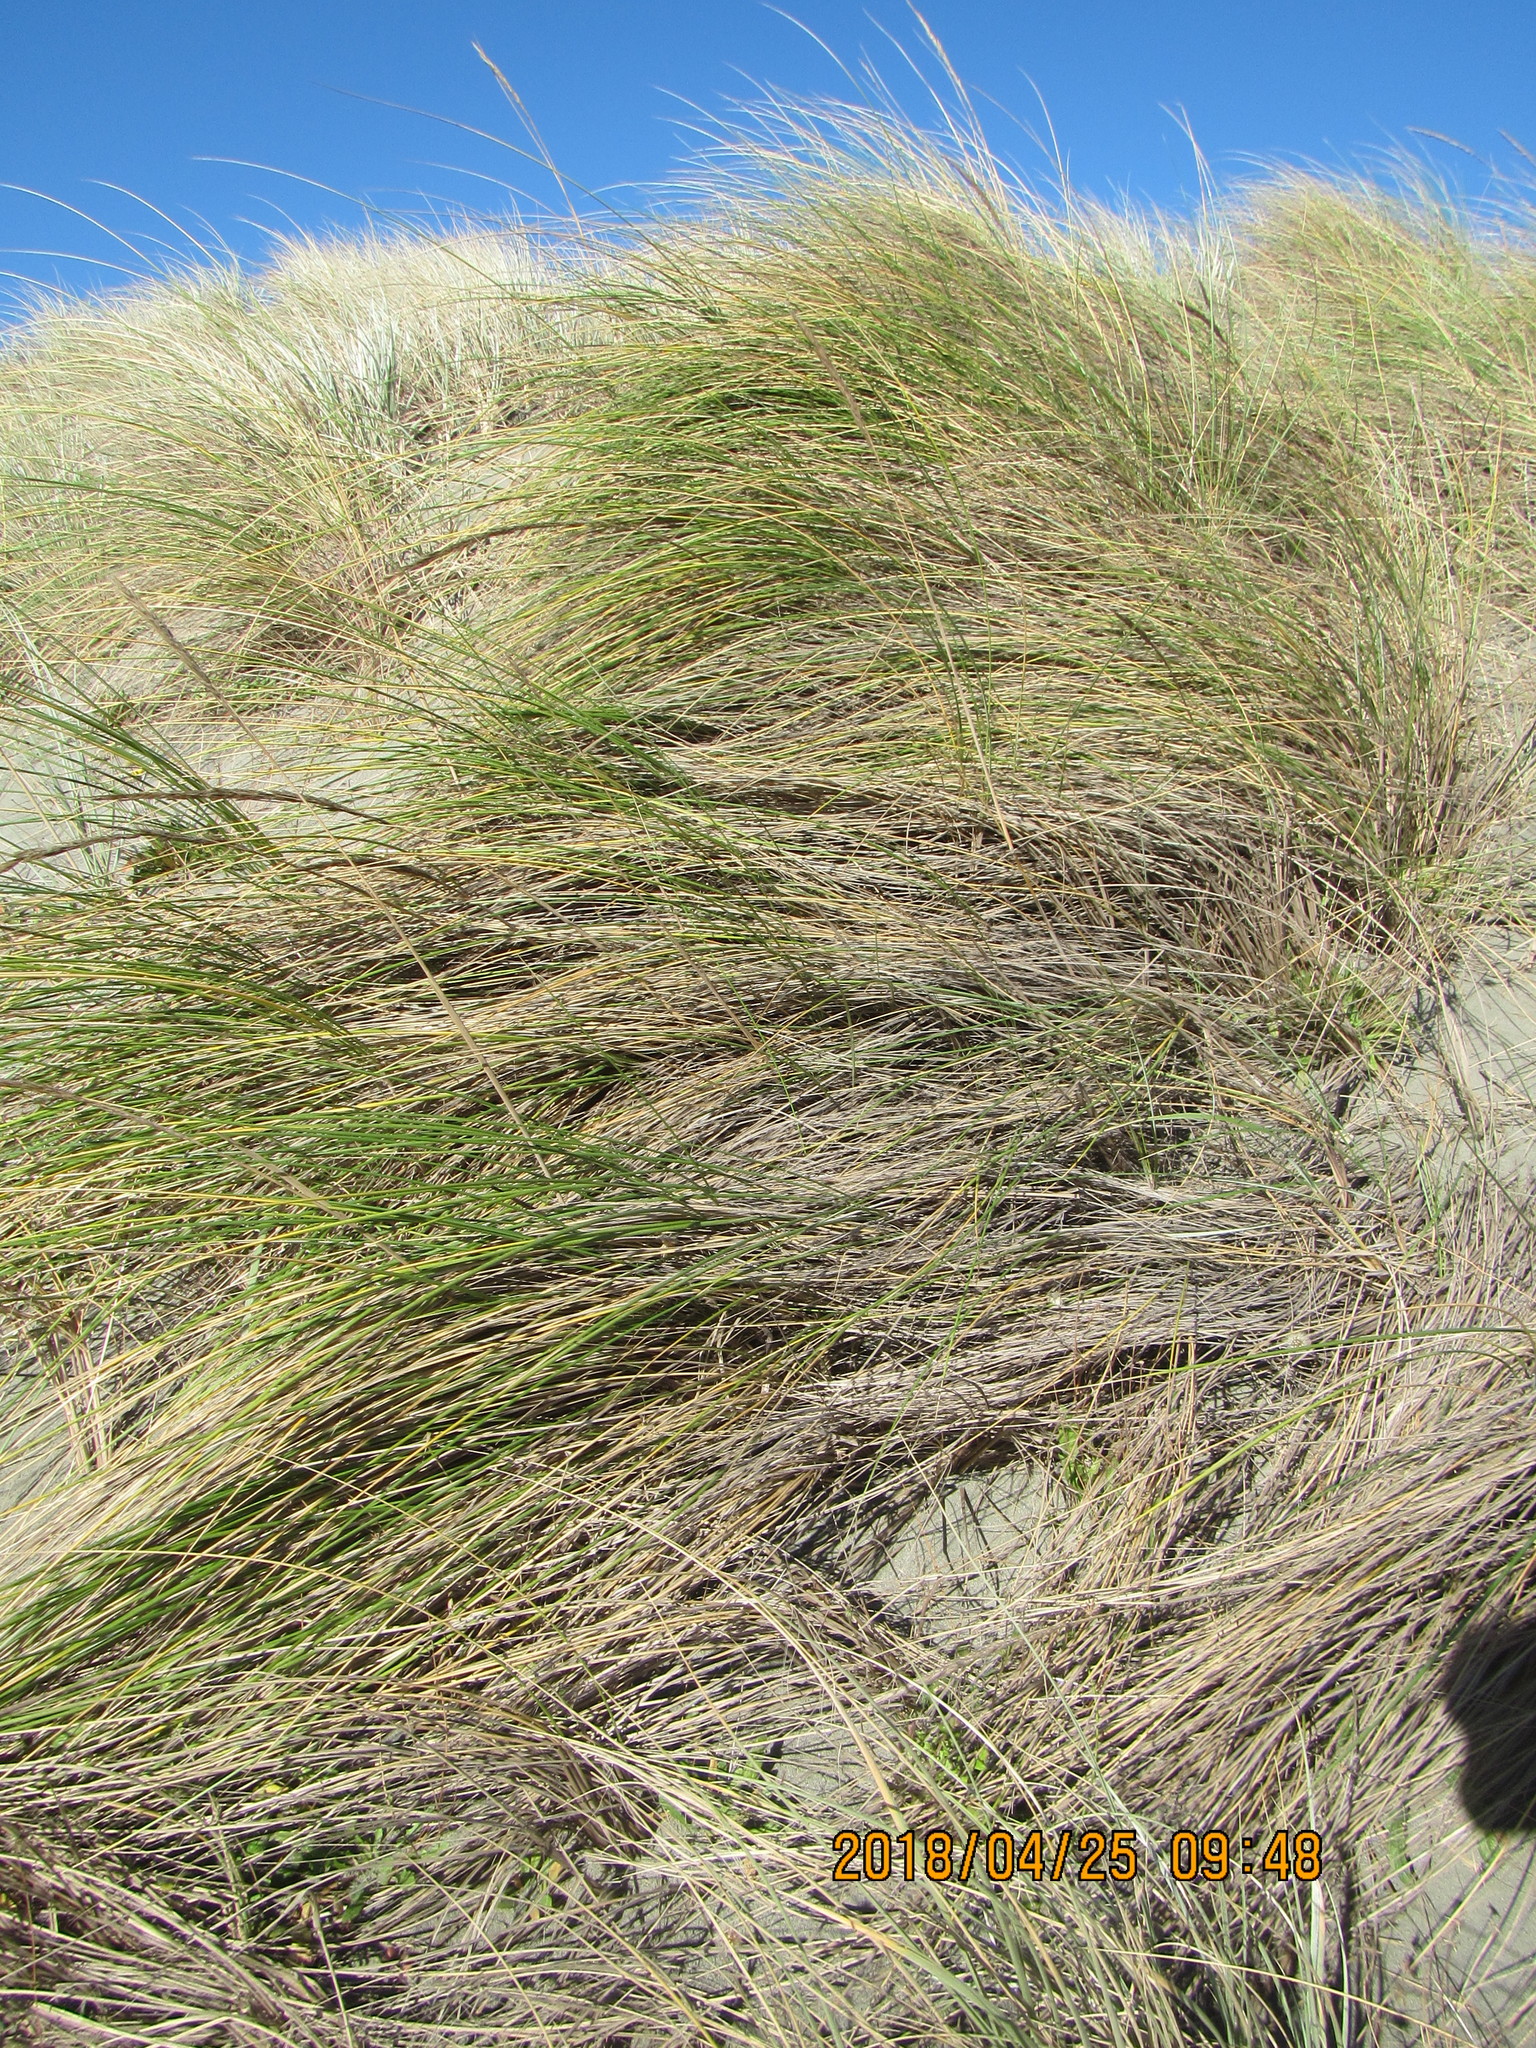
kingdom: Plantae
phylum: Tracheophyta
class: Liliopsida
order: Poales
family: Poaceae
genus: Calamagrostis
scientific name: Calamagrostis arenaria
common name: European beachgrass
